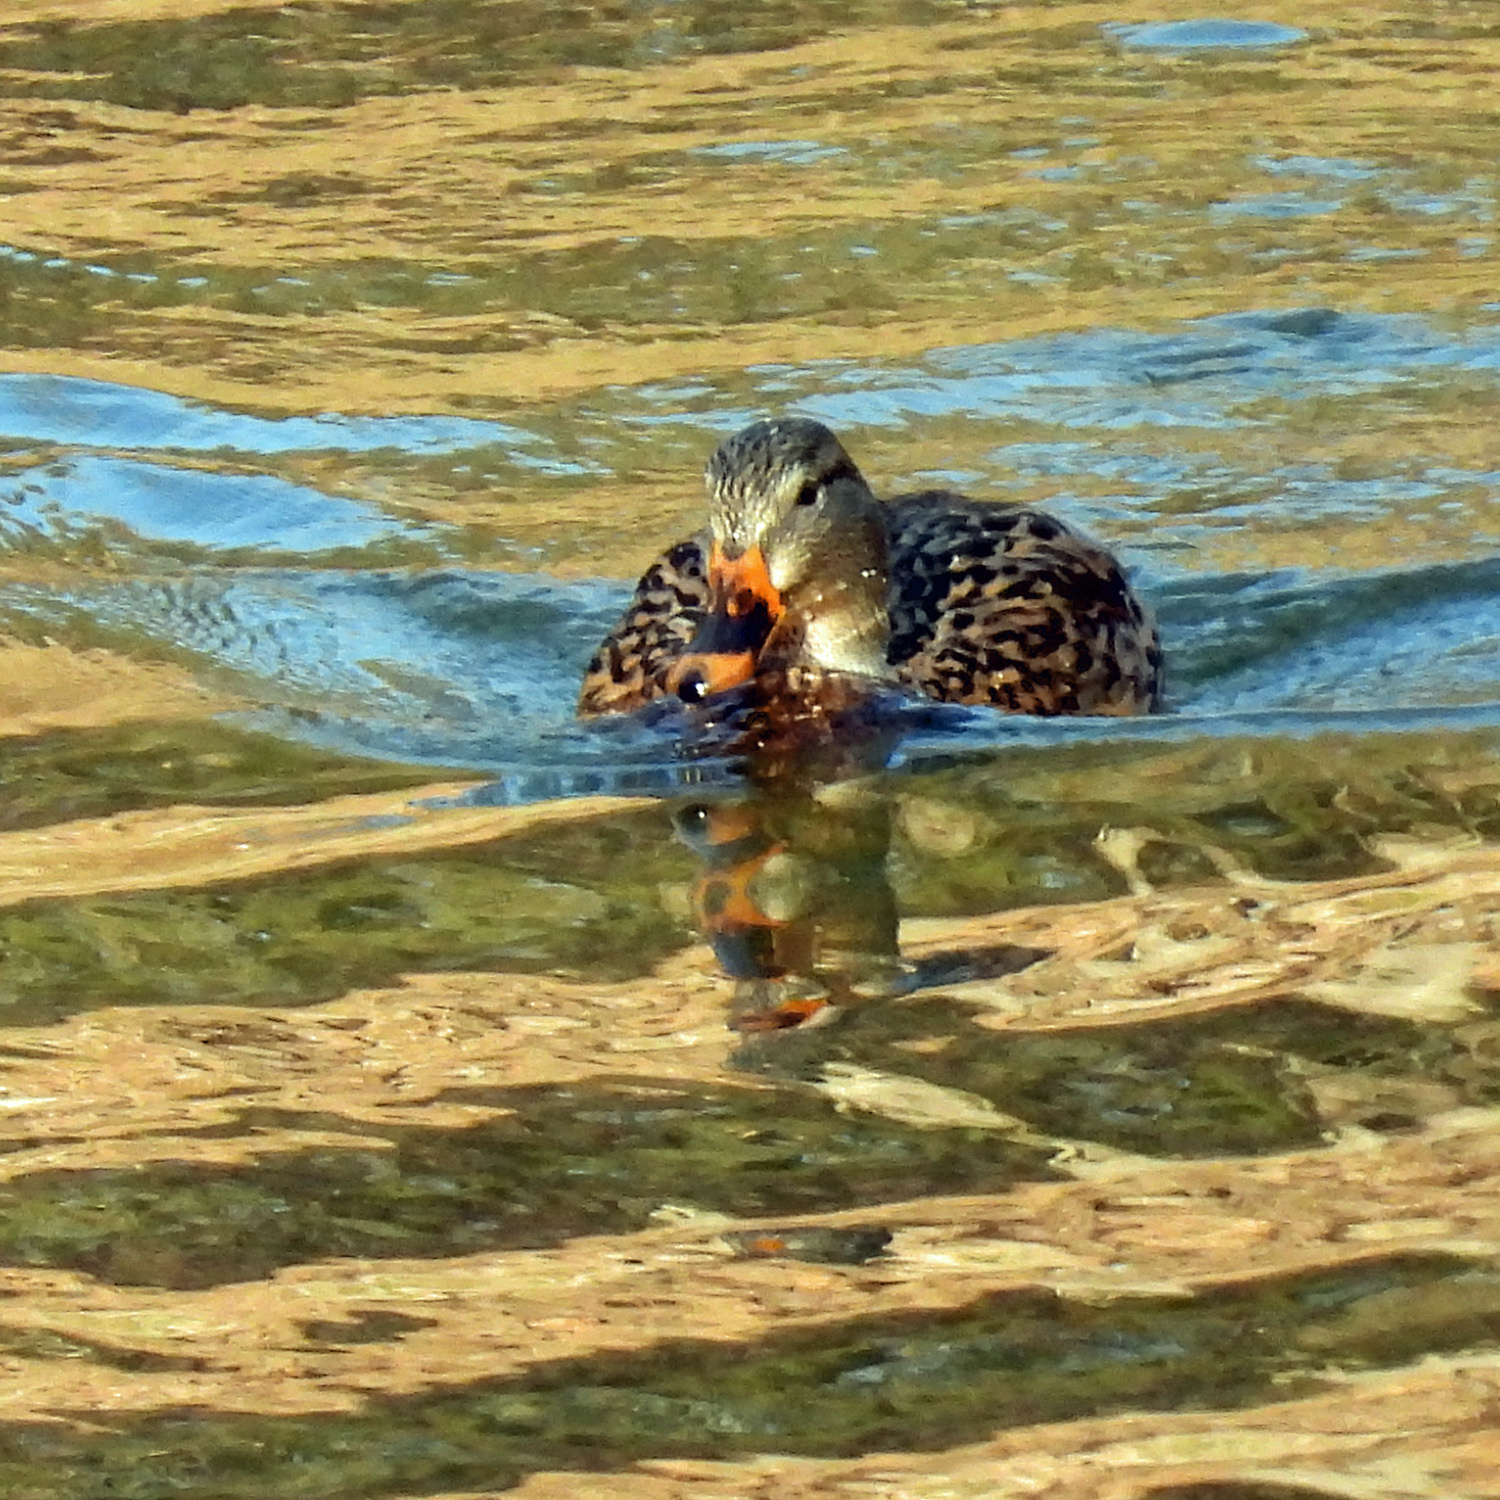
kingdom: Animalia
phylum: Chordata
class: Aves
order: Anseriformes
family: Anatidae
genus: Anas
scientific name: Anas platyrhynchos
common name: Mallard
